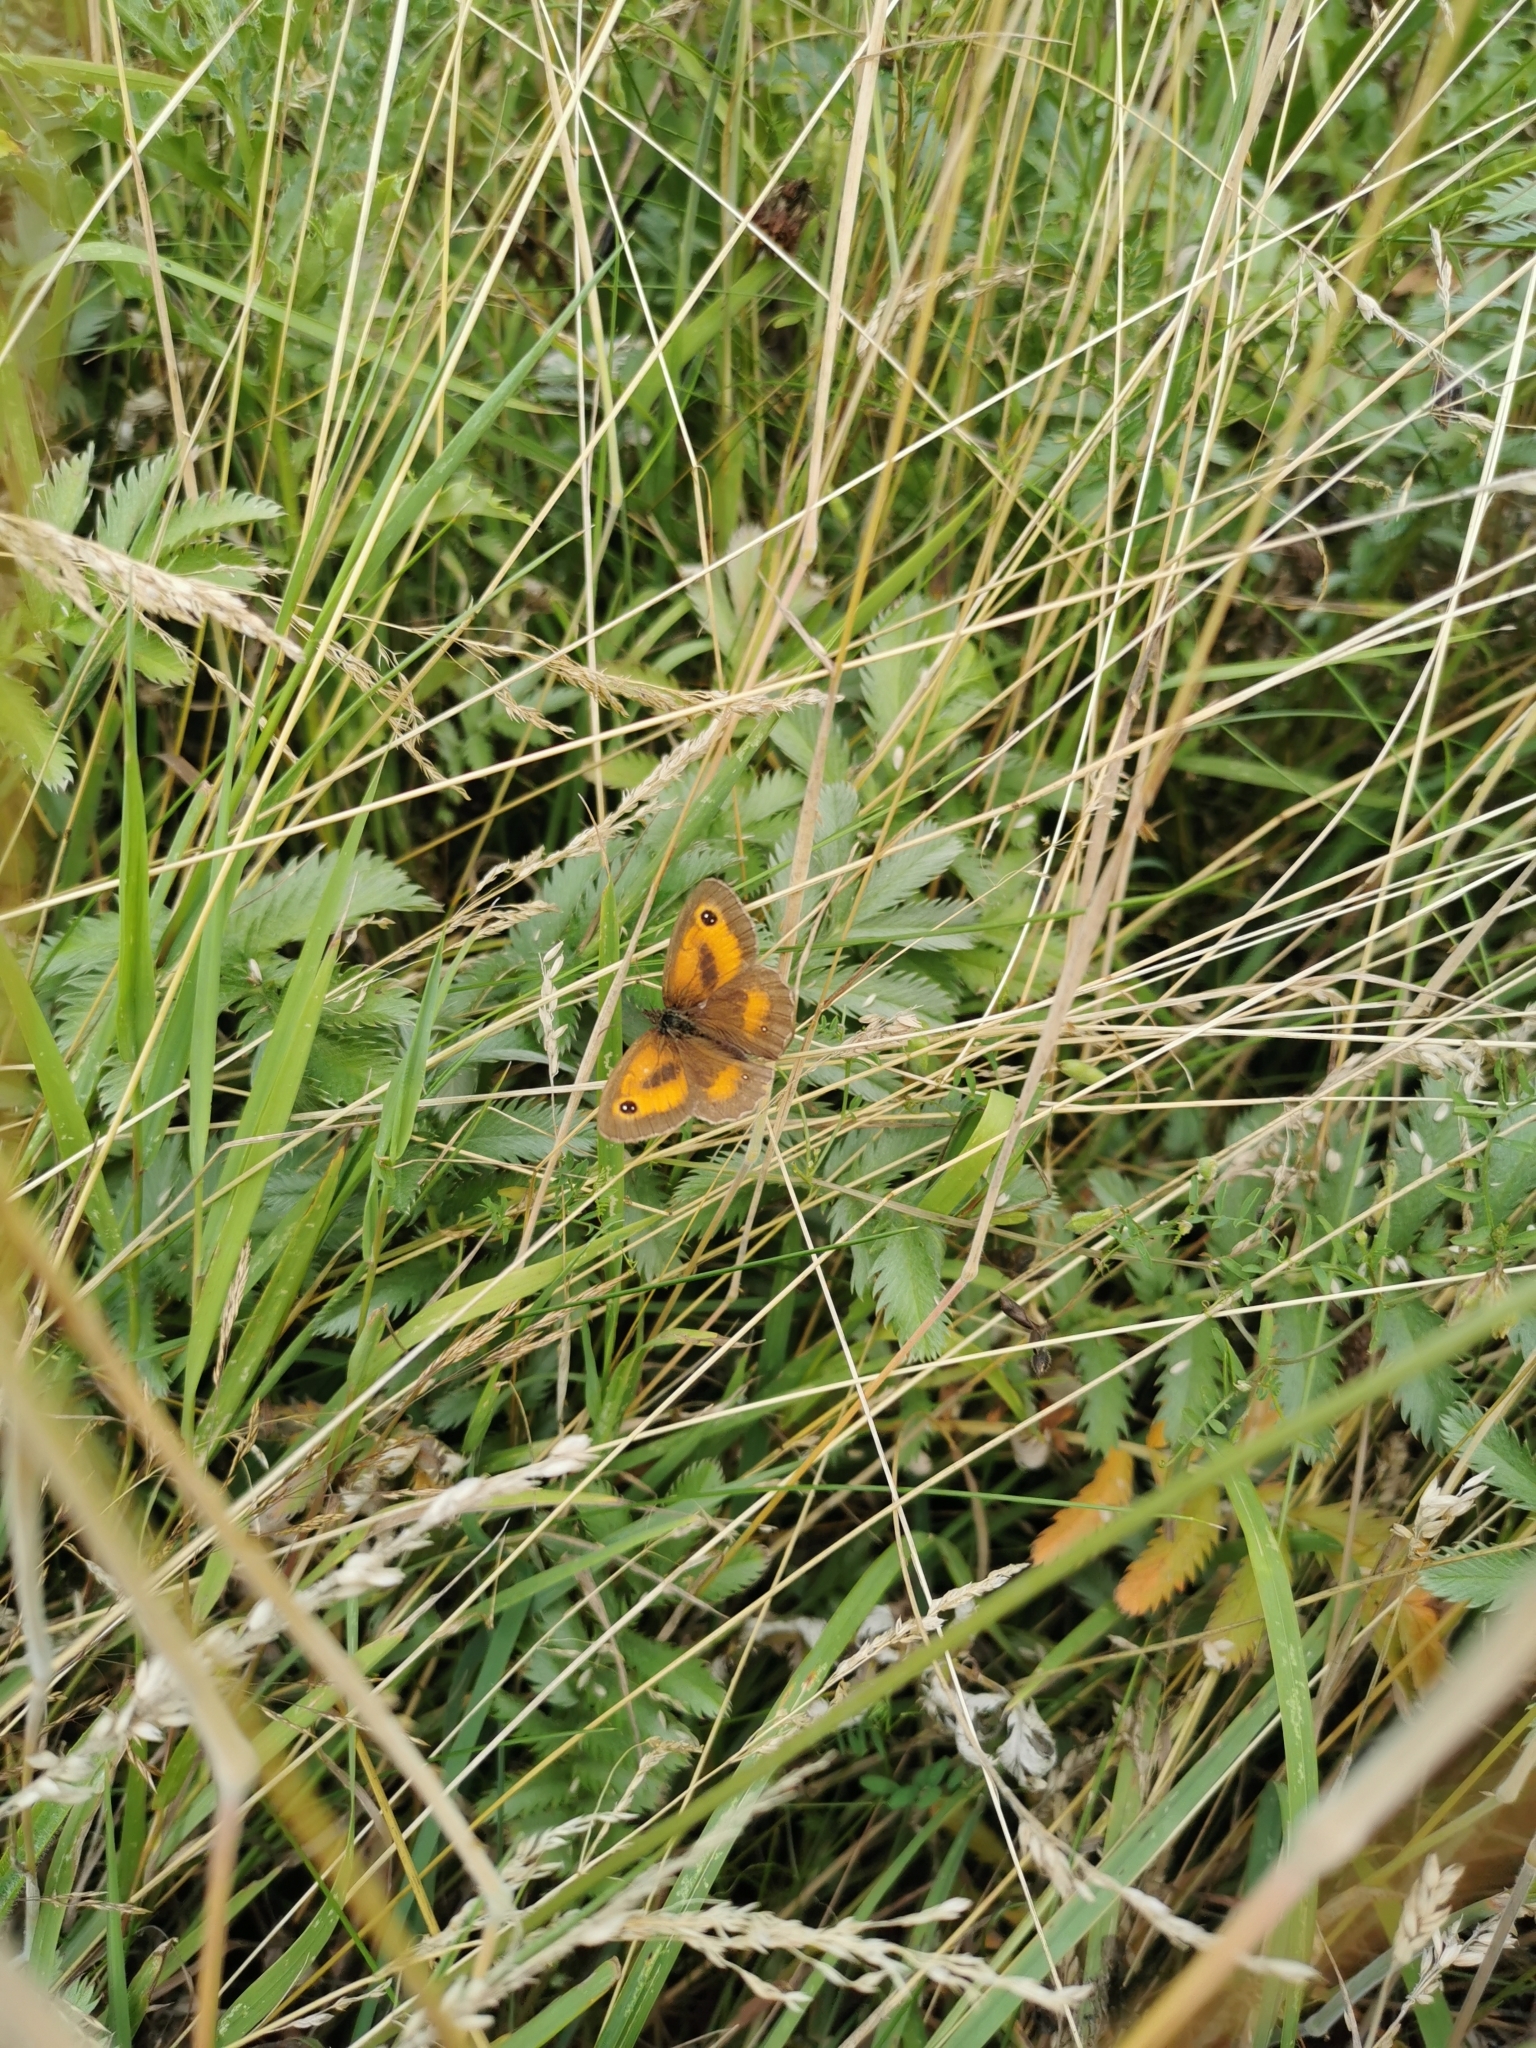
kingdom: Animalia
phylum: Arthropoda
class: Insecta
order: Lepidoptera
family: Nymphalidae
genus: Pyronia
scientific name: Pyronia tithonus
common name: Gatekeeper
